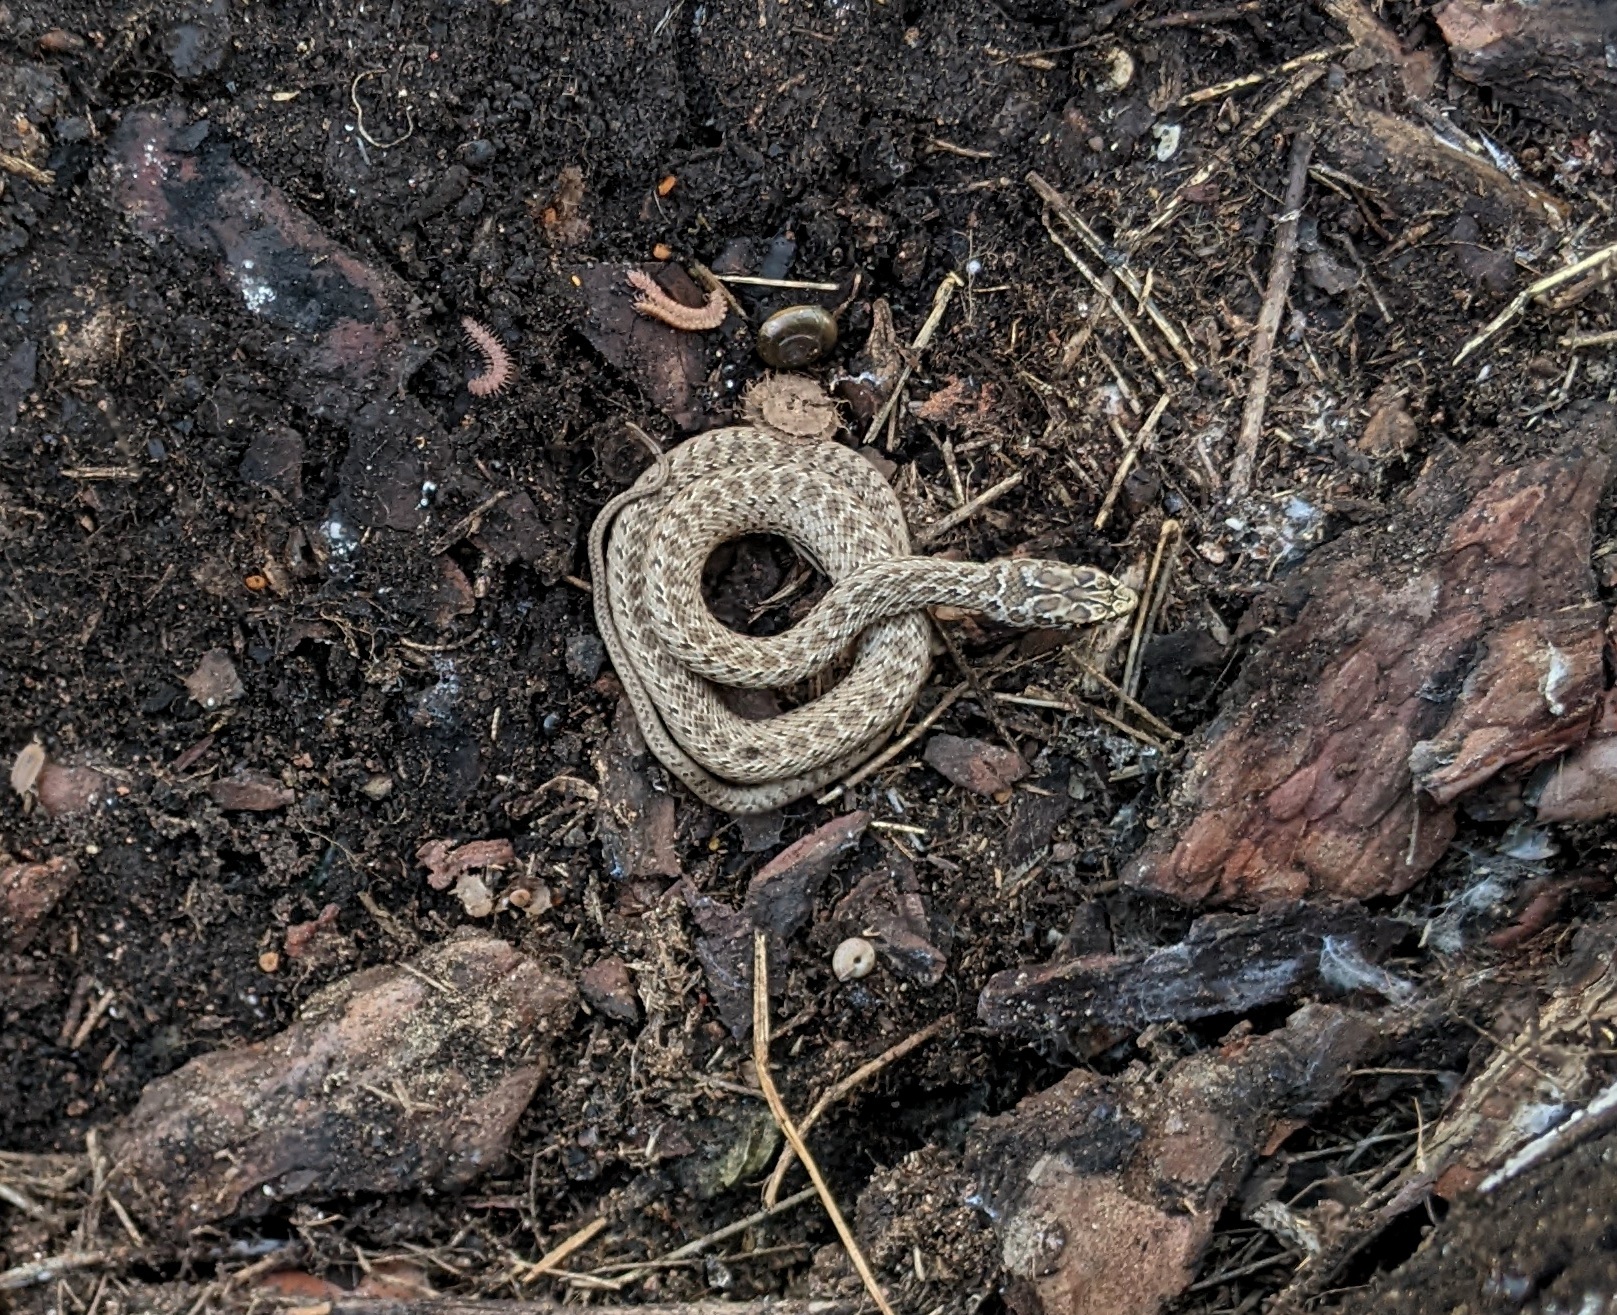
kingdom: Animalia
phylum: Chordata
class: Squamata
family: Psammophiidae
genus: Malpolon
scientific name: Malpolon monspessulanus
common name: Montpellier snake
